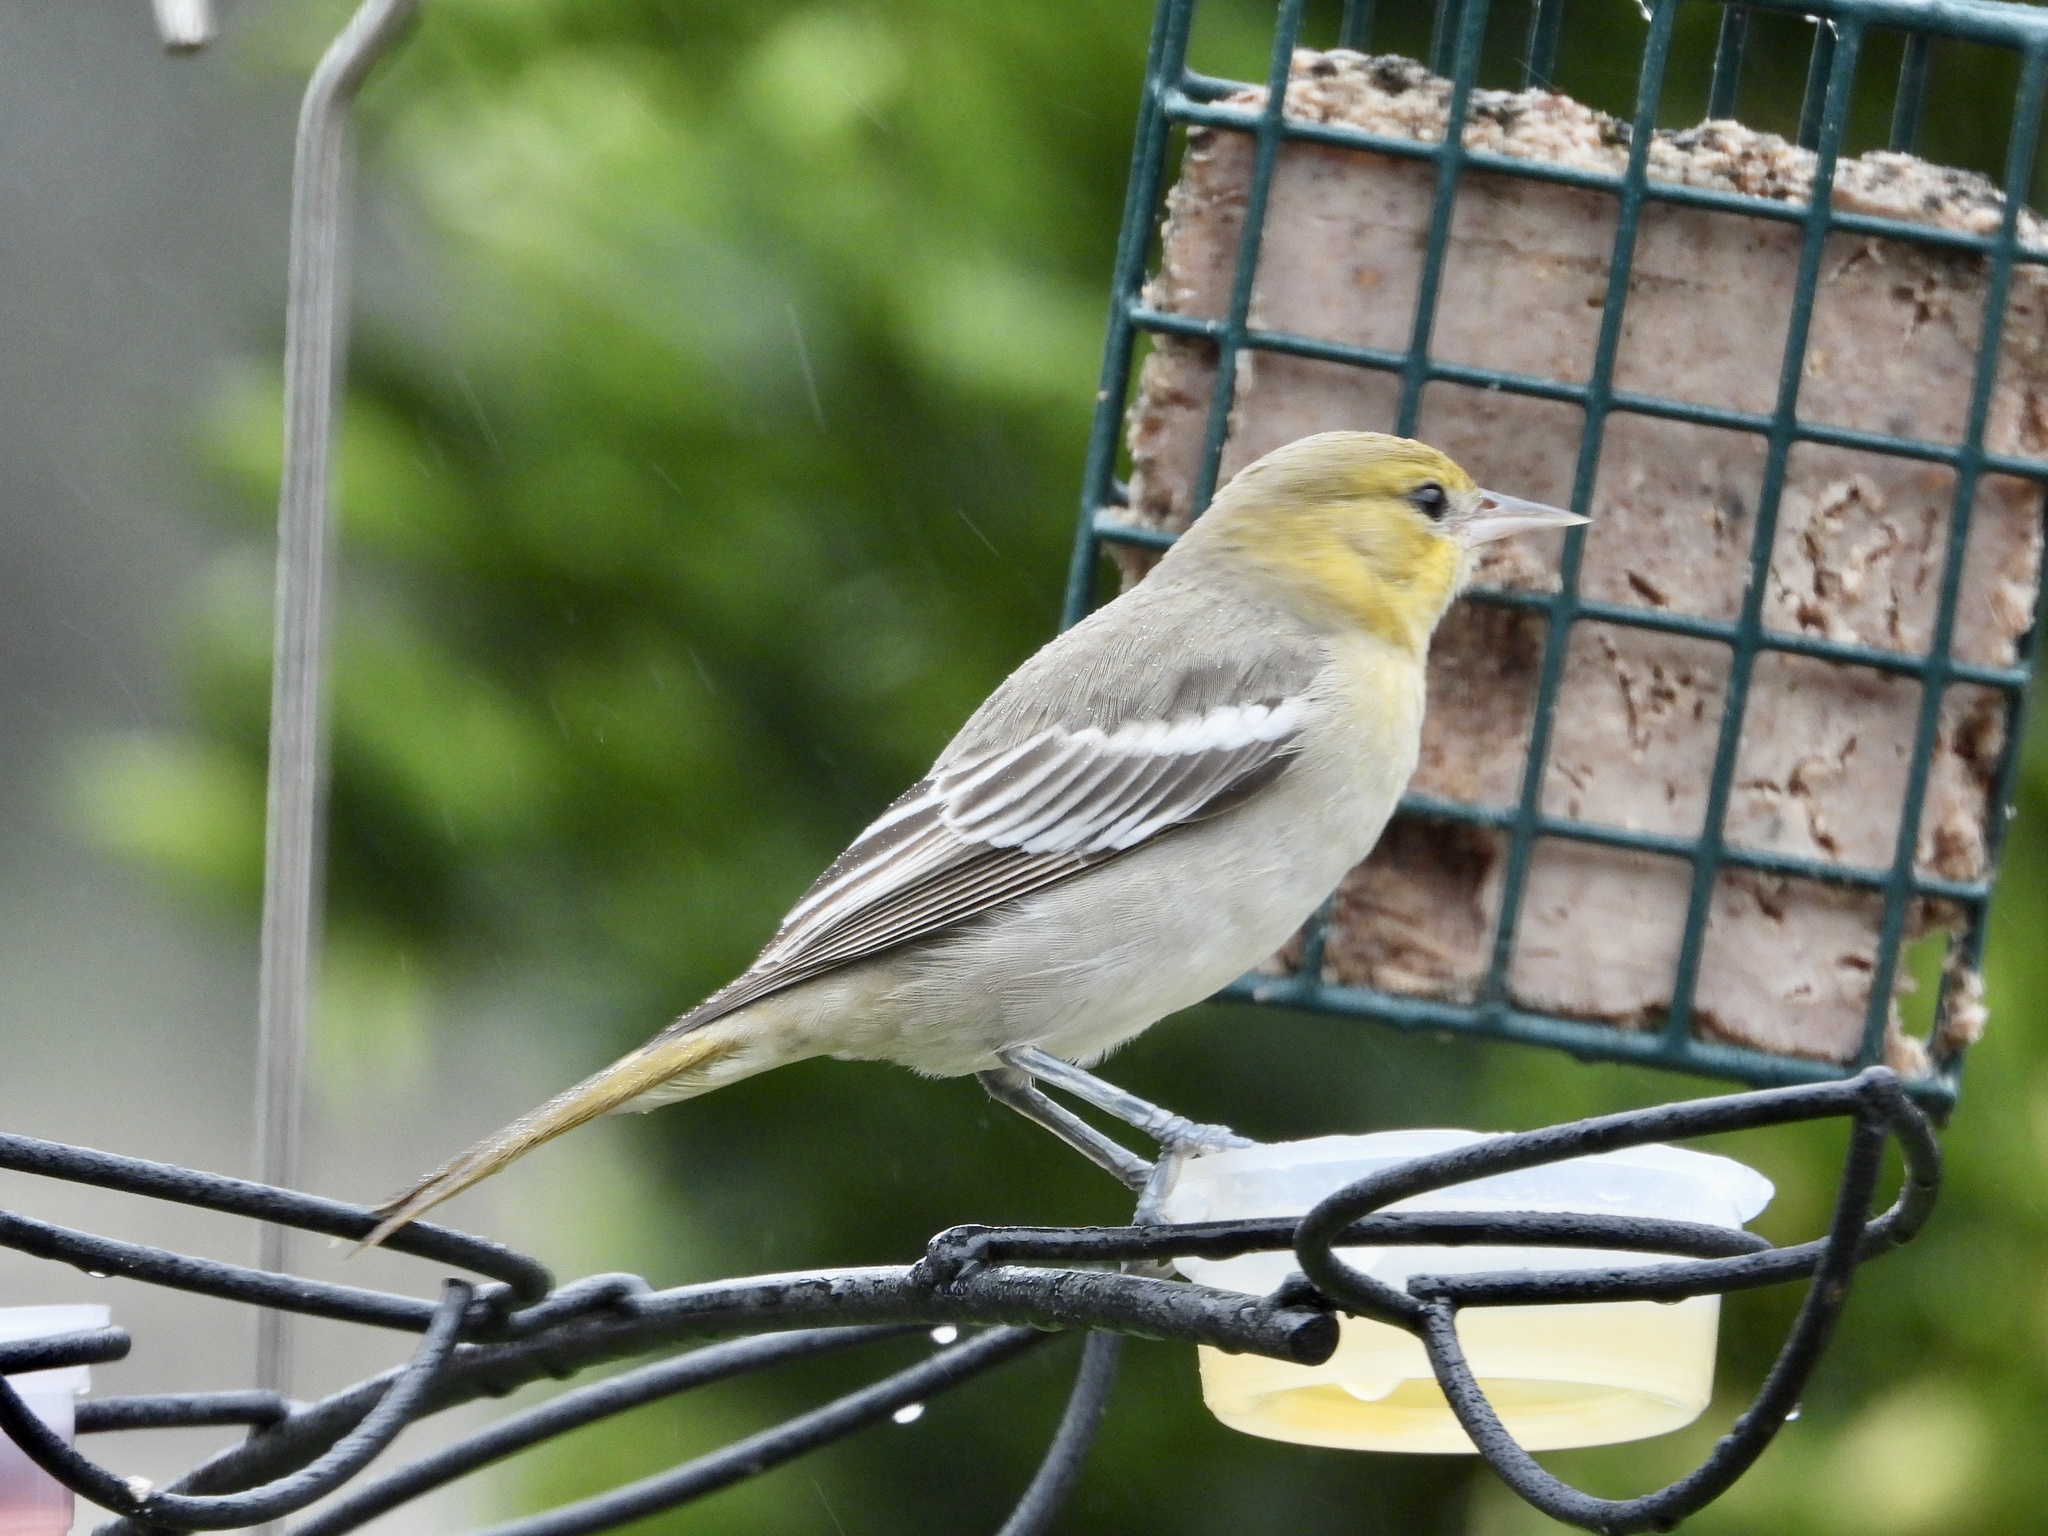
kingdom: Animalia
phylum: Chordata
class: Aves
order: Passeriformes
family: Icteridae
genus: Icterus
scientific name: Icterus bullockii
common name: Bullock's oriole
